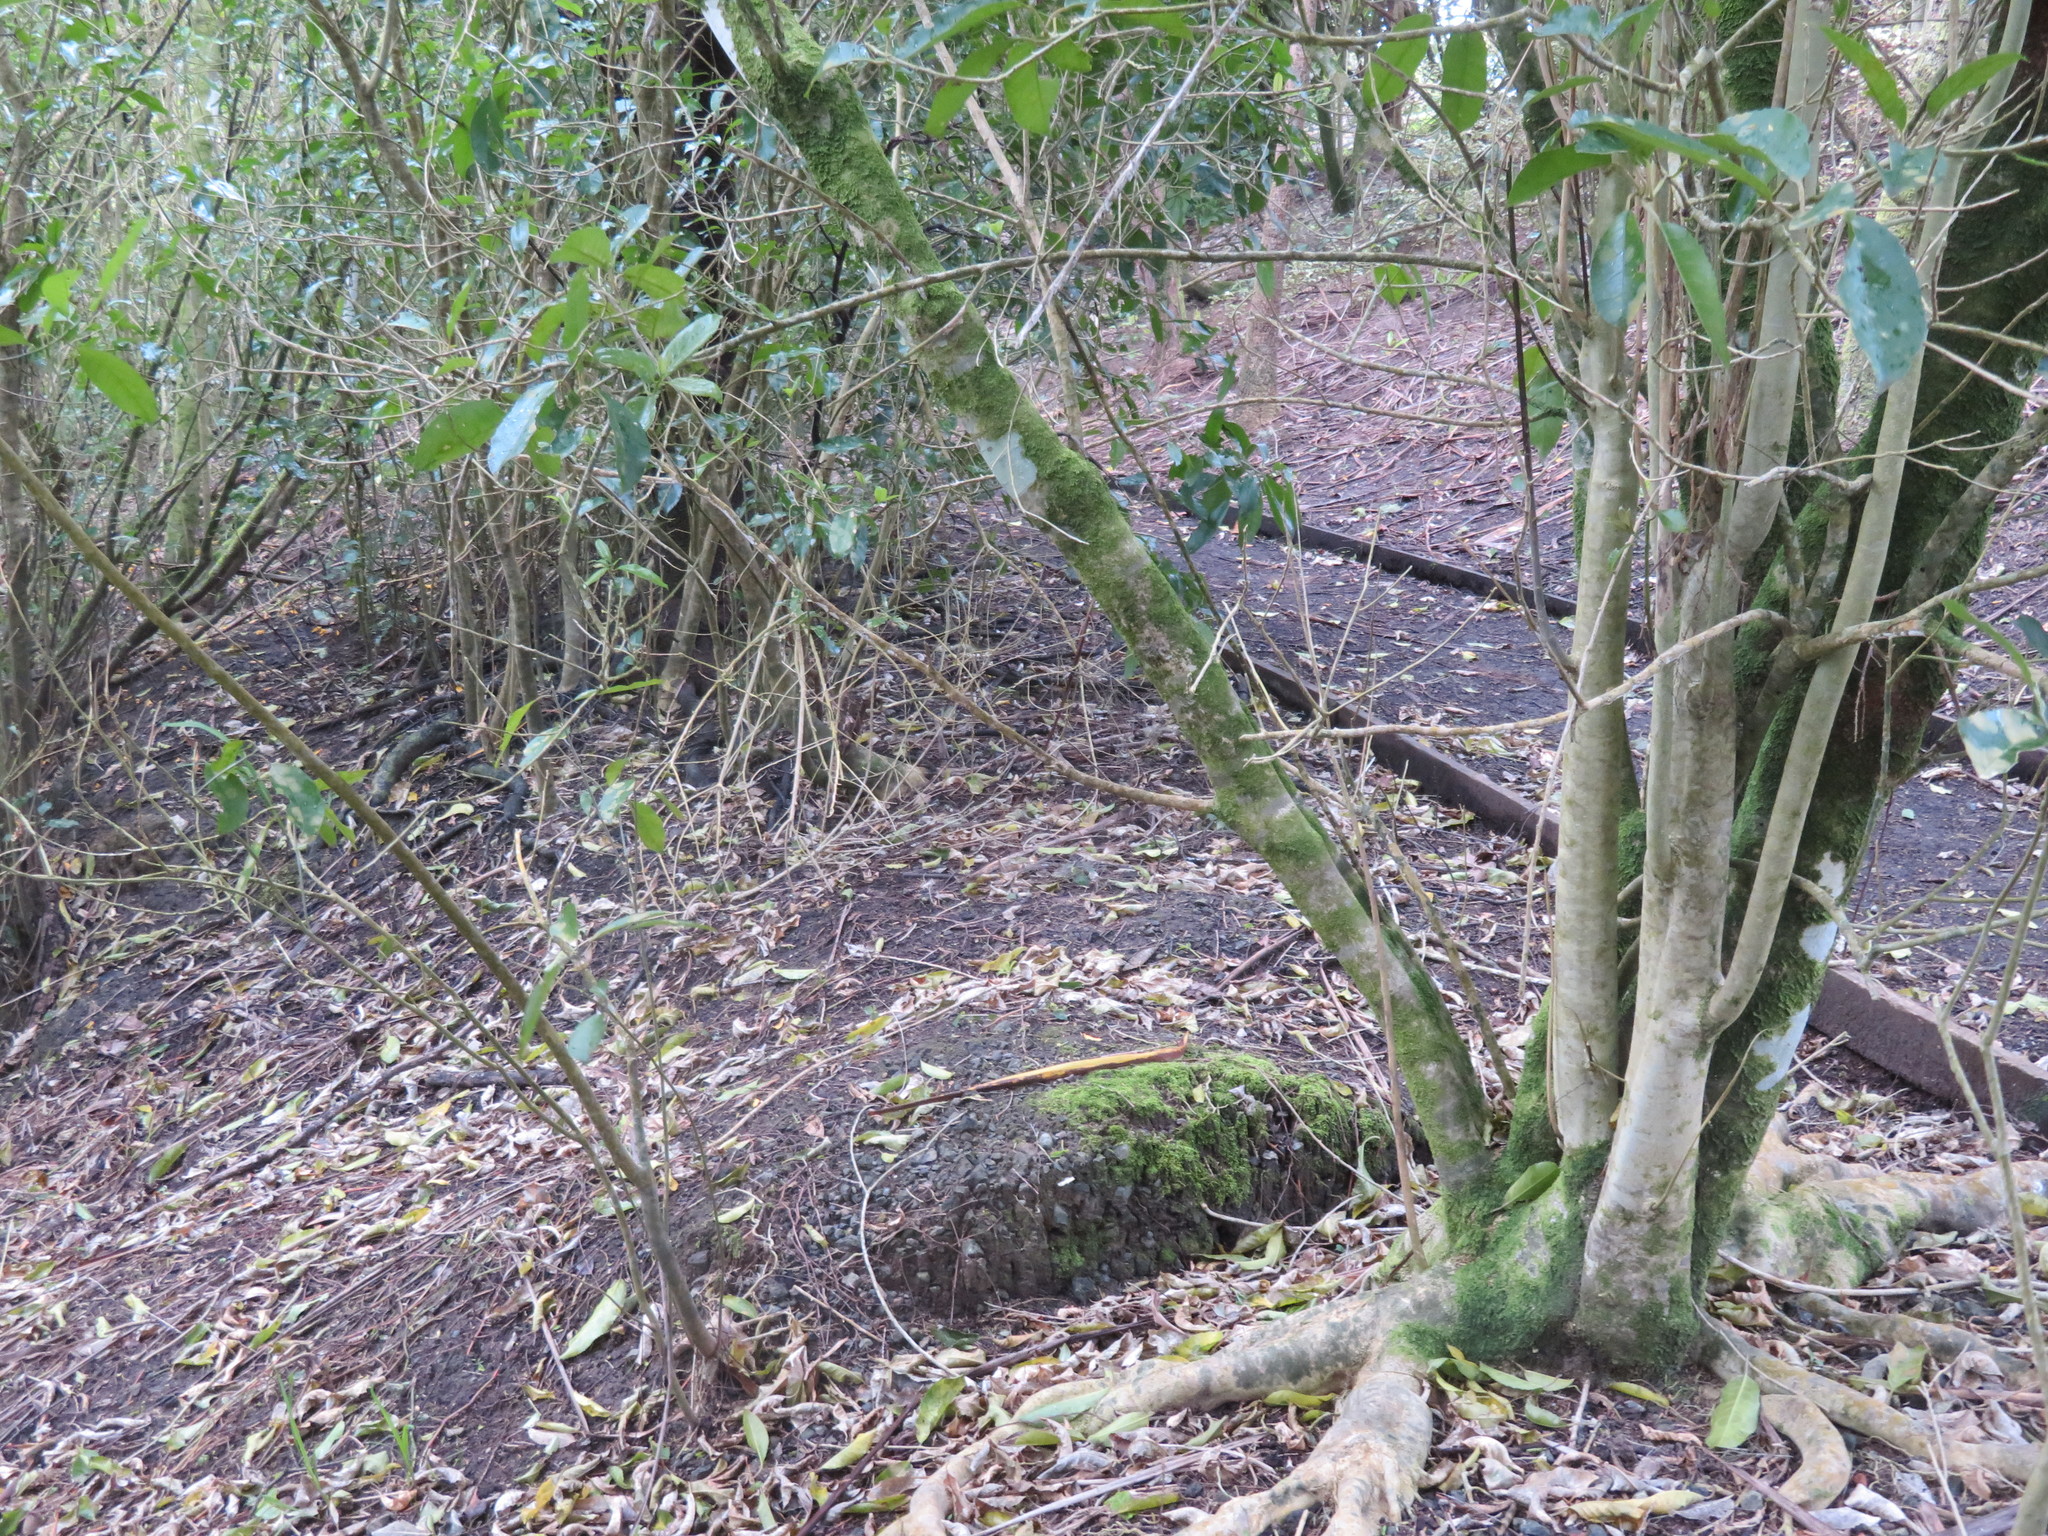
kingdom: Plantae
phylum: Tracheophyta
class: Magnoliopsida
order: Malpighiales
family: Violaceae
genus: Melicytus
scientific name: Melicytus ramiflorus
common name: Mahoe
